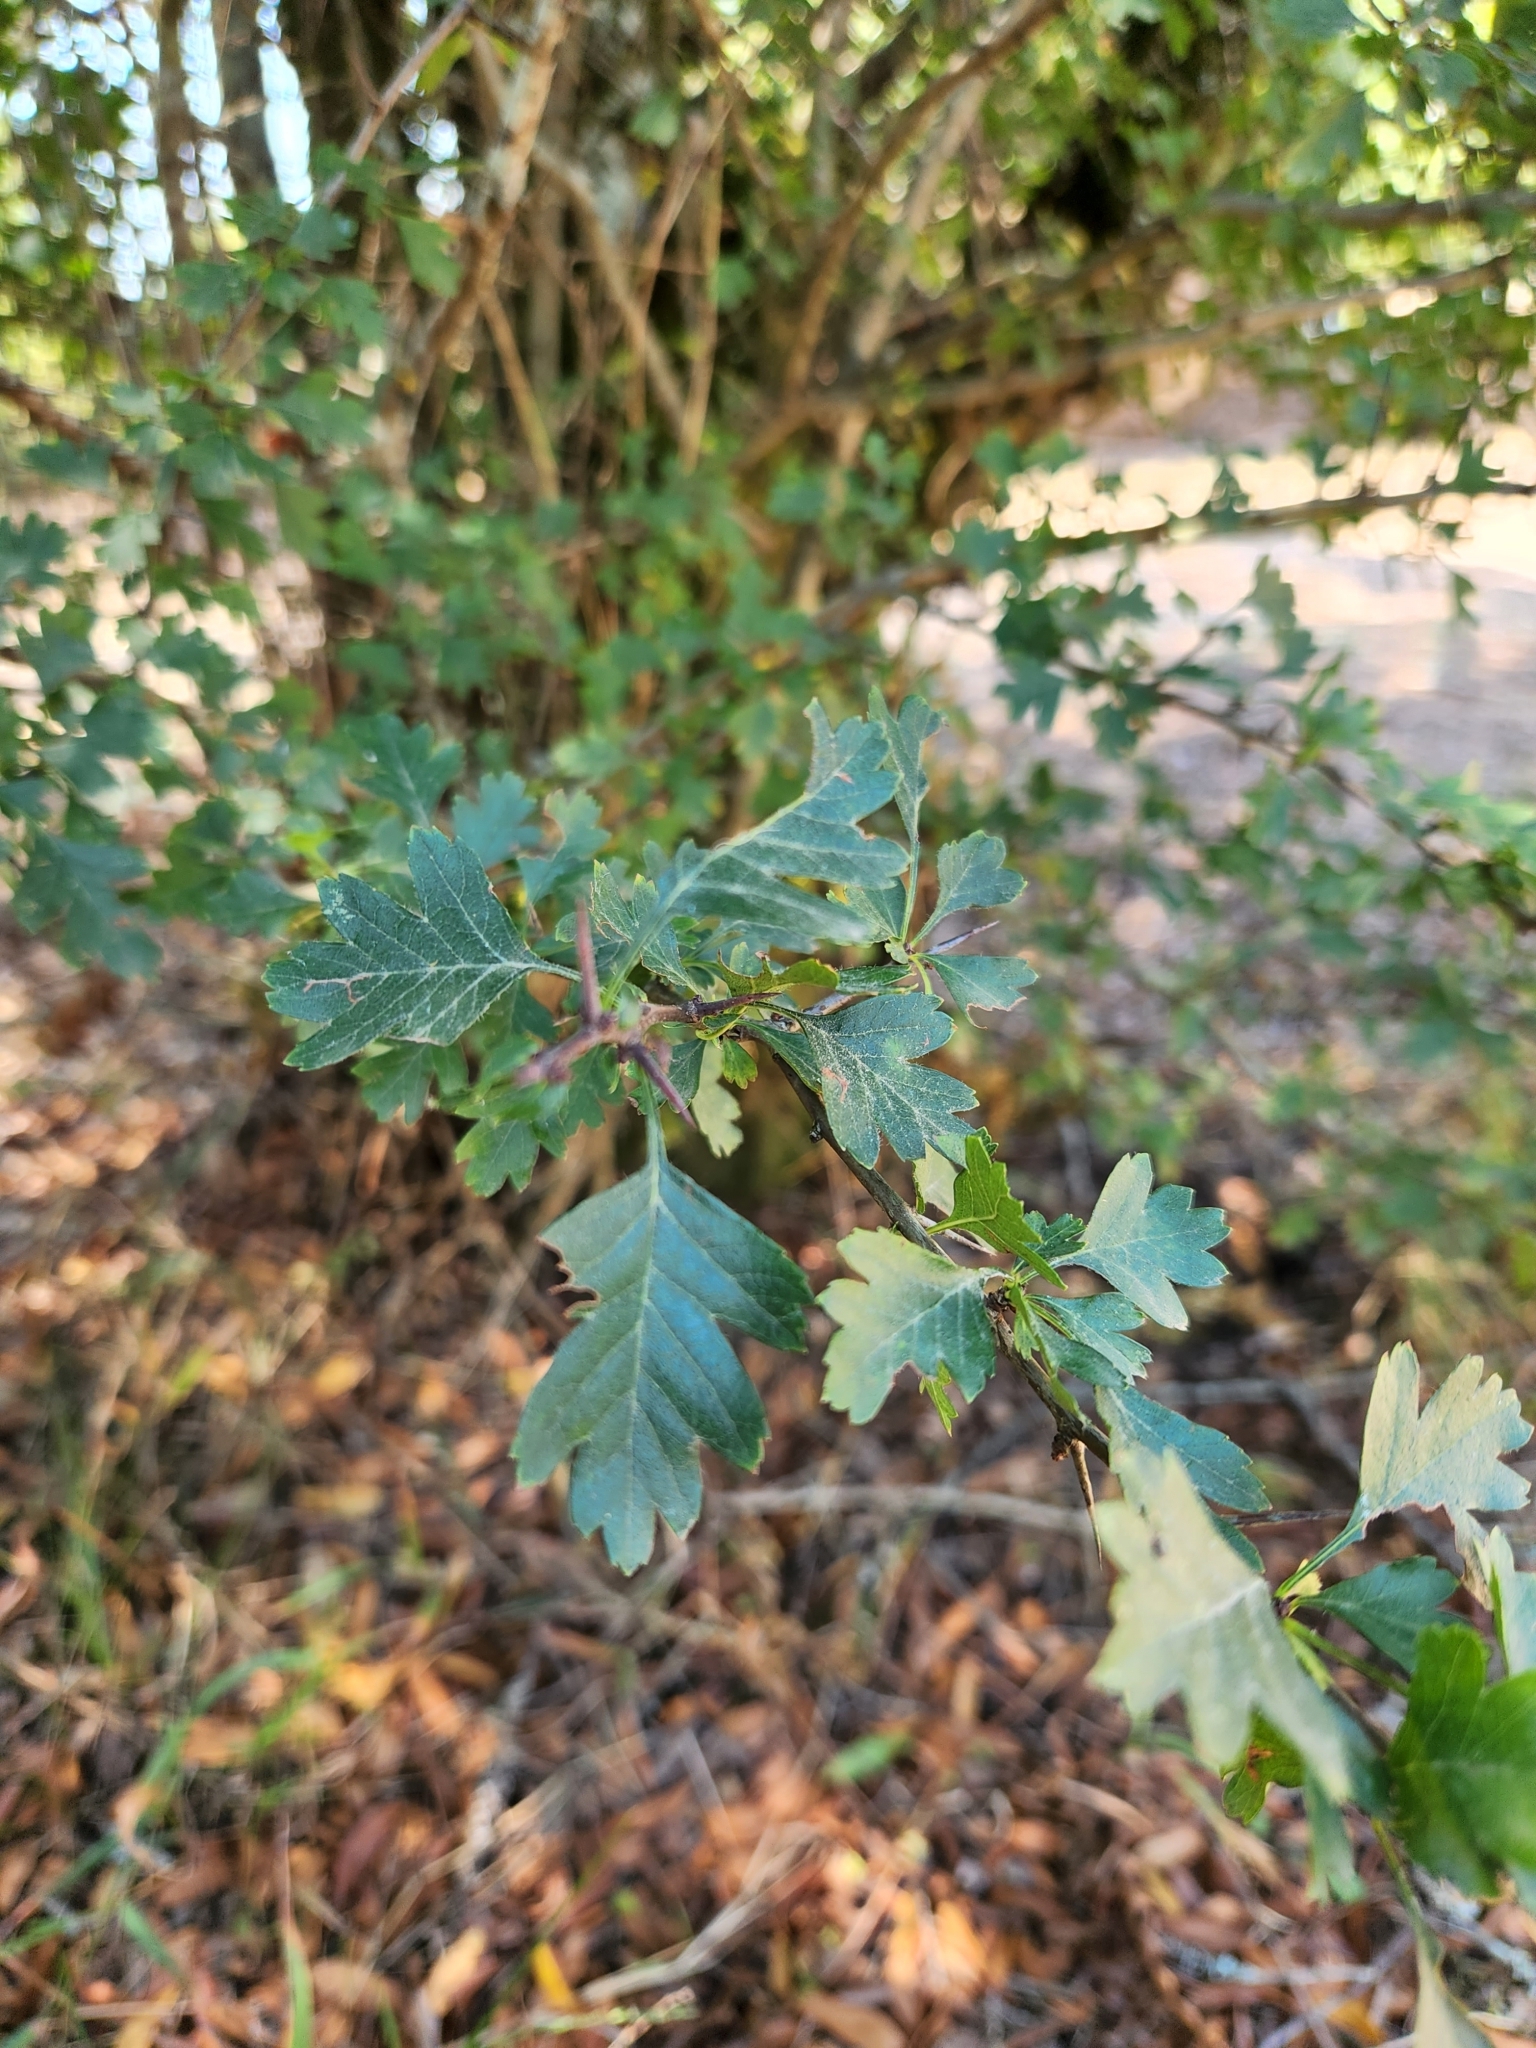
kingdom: Plantae
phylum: Tracheophyta
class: Magnoliopsida
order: Rosales
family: Rosaceae
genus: Crataegus
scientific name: Crataegus monogyna
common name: Hawthorn
